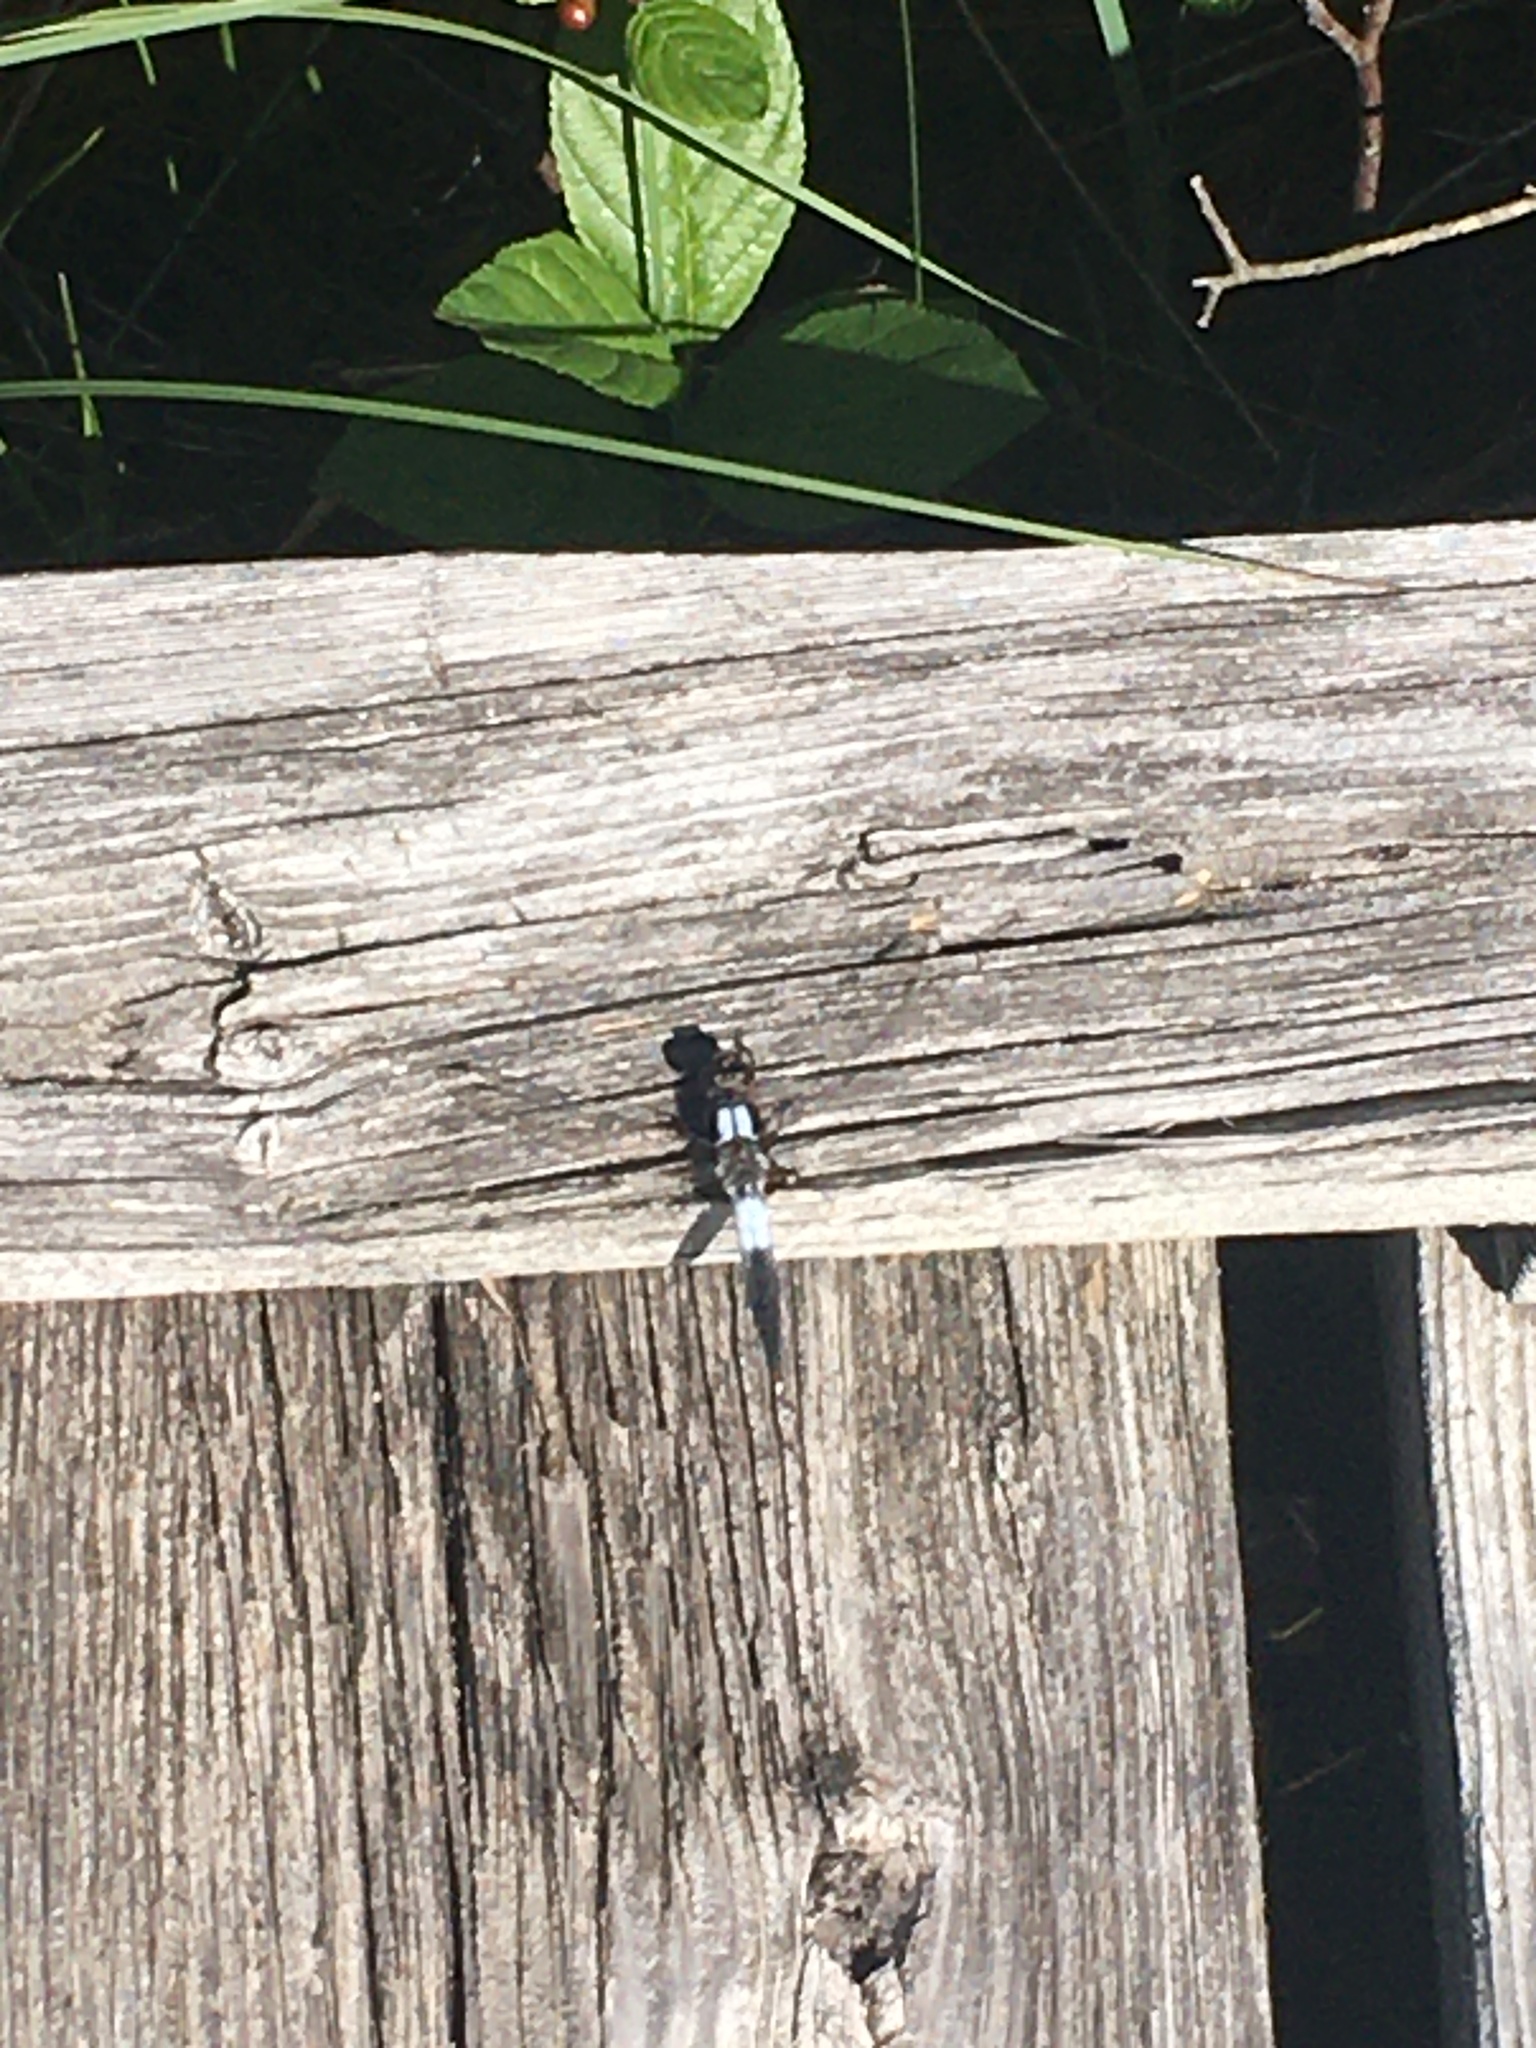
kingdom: Animalia
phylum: Arthropoda
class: Insecta
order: Odonata
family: Libellulidae
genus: Ladona
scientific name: Ladona julia
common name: Chalk-fronted corporal
